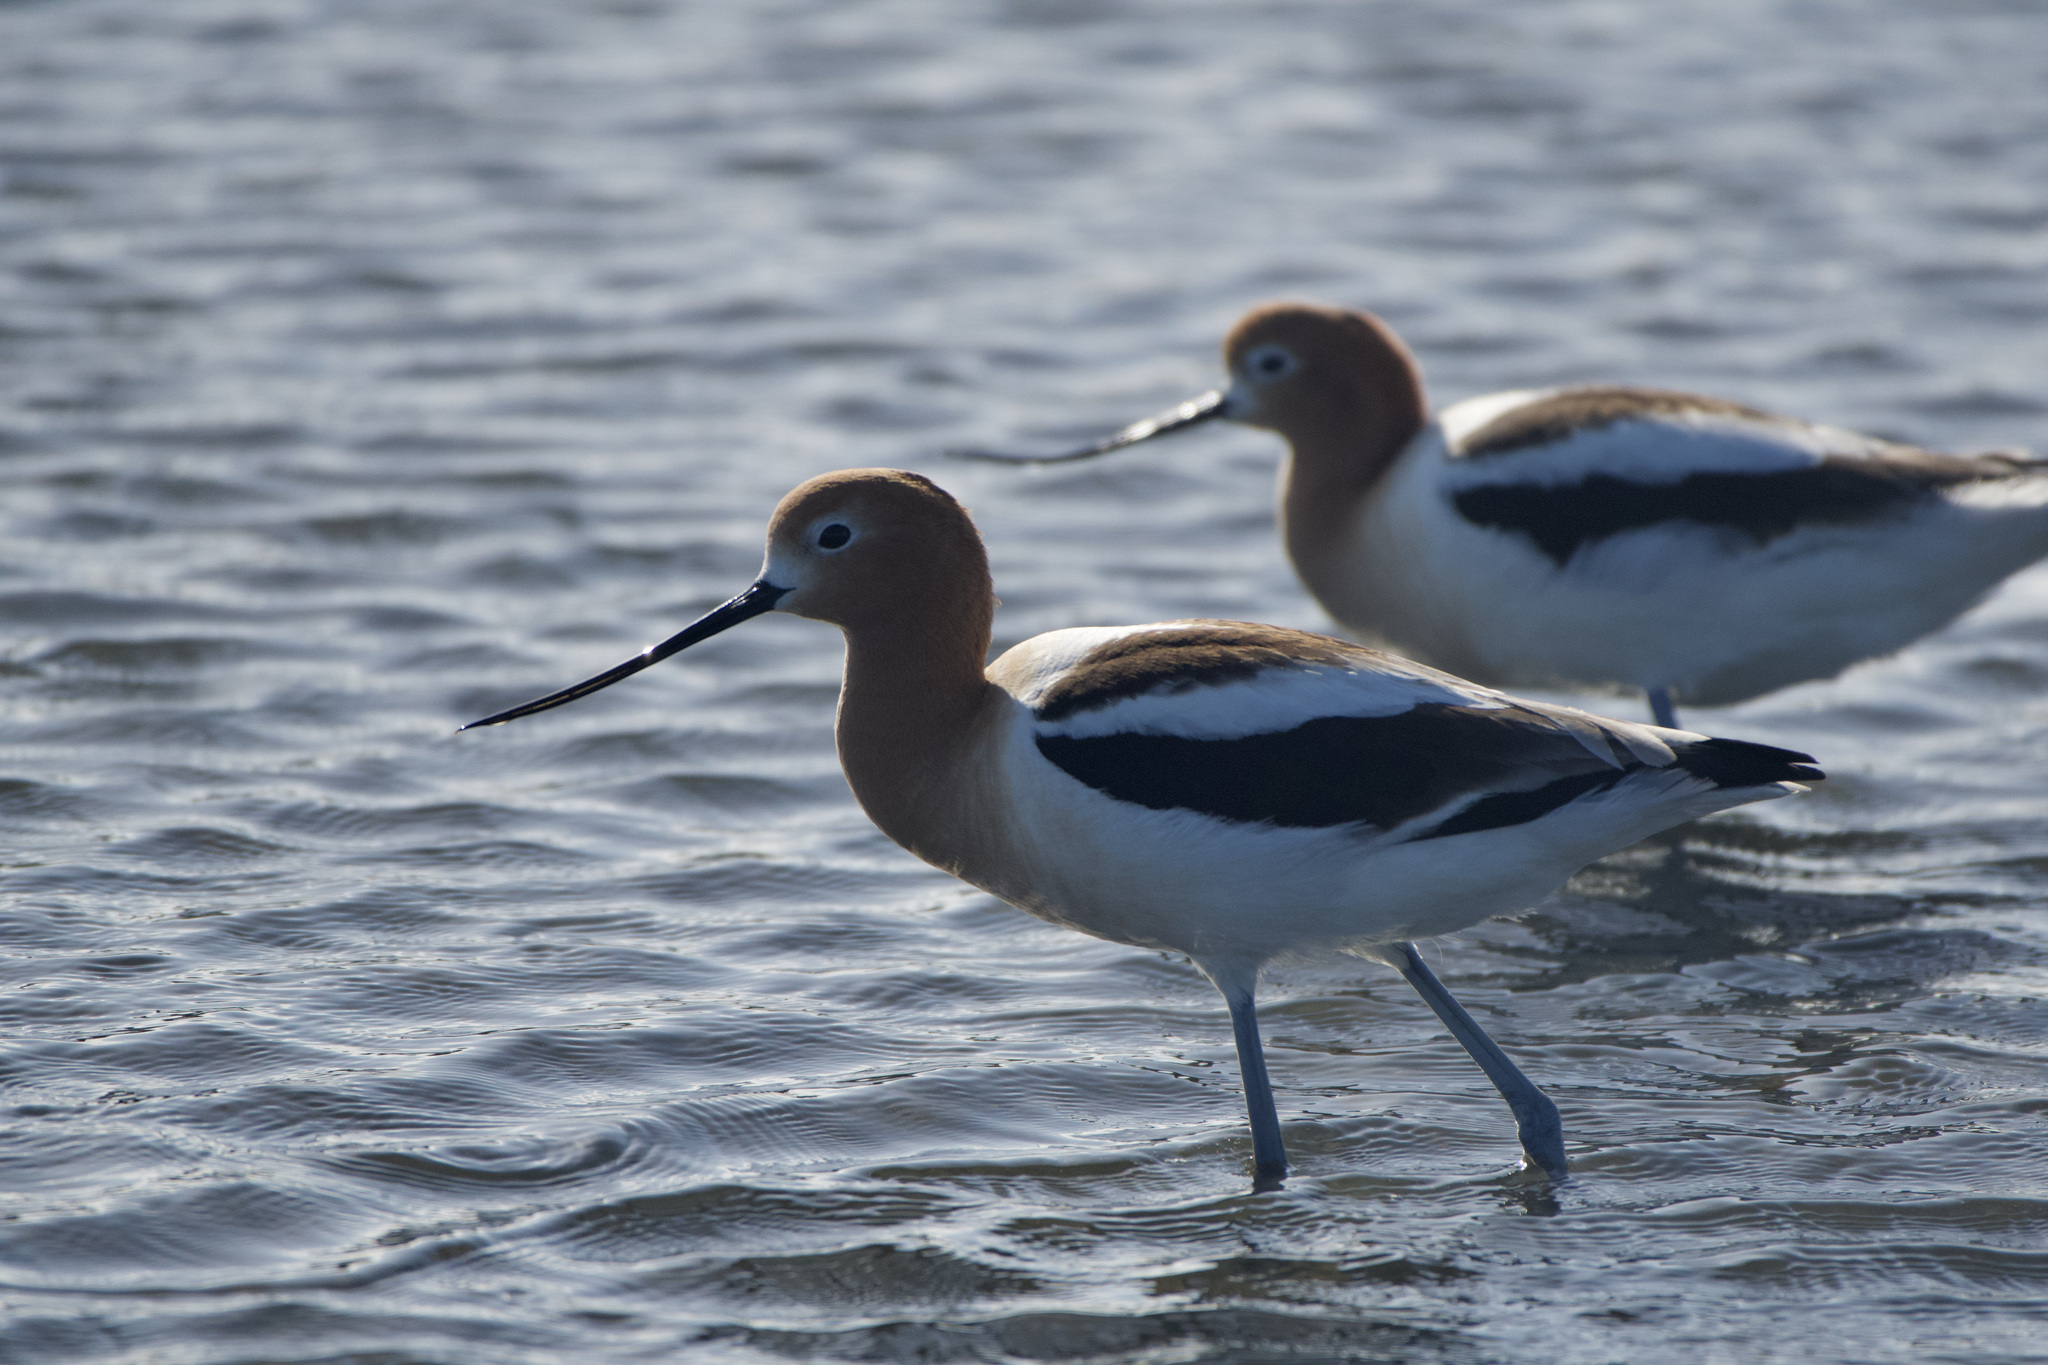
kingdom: Animalia
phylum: Chordata
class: Aves
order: Charadriiformes
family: Recurvirostridae
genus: Recurvirostra
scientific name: Recurvirostra americana
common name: American avocet
